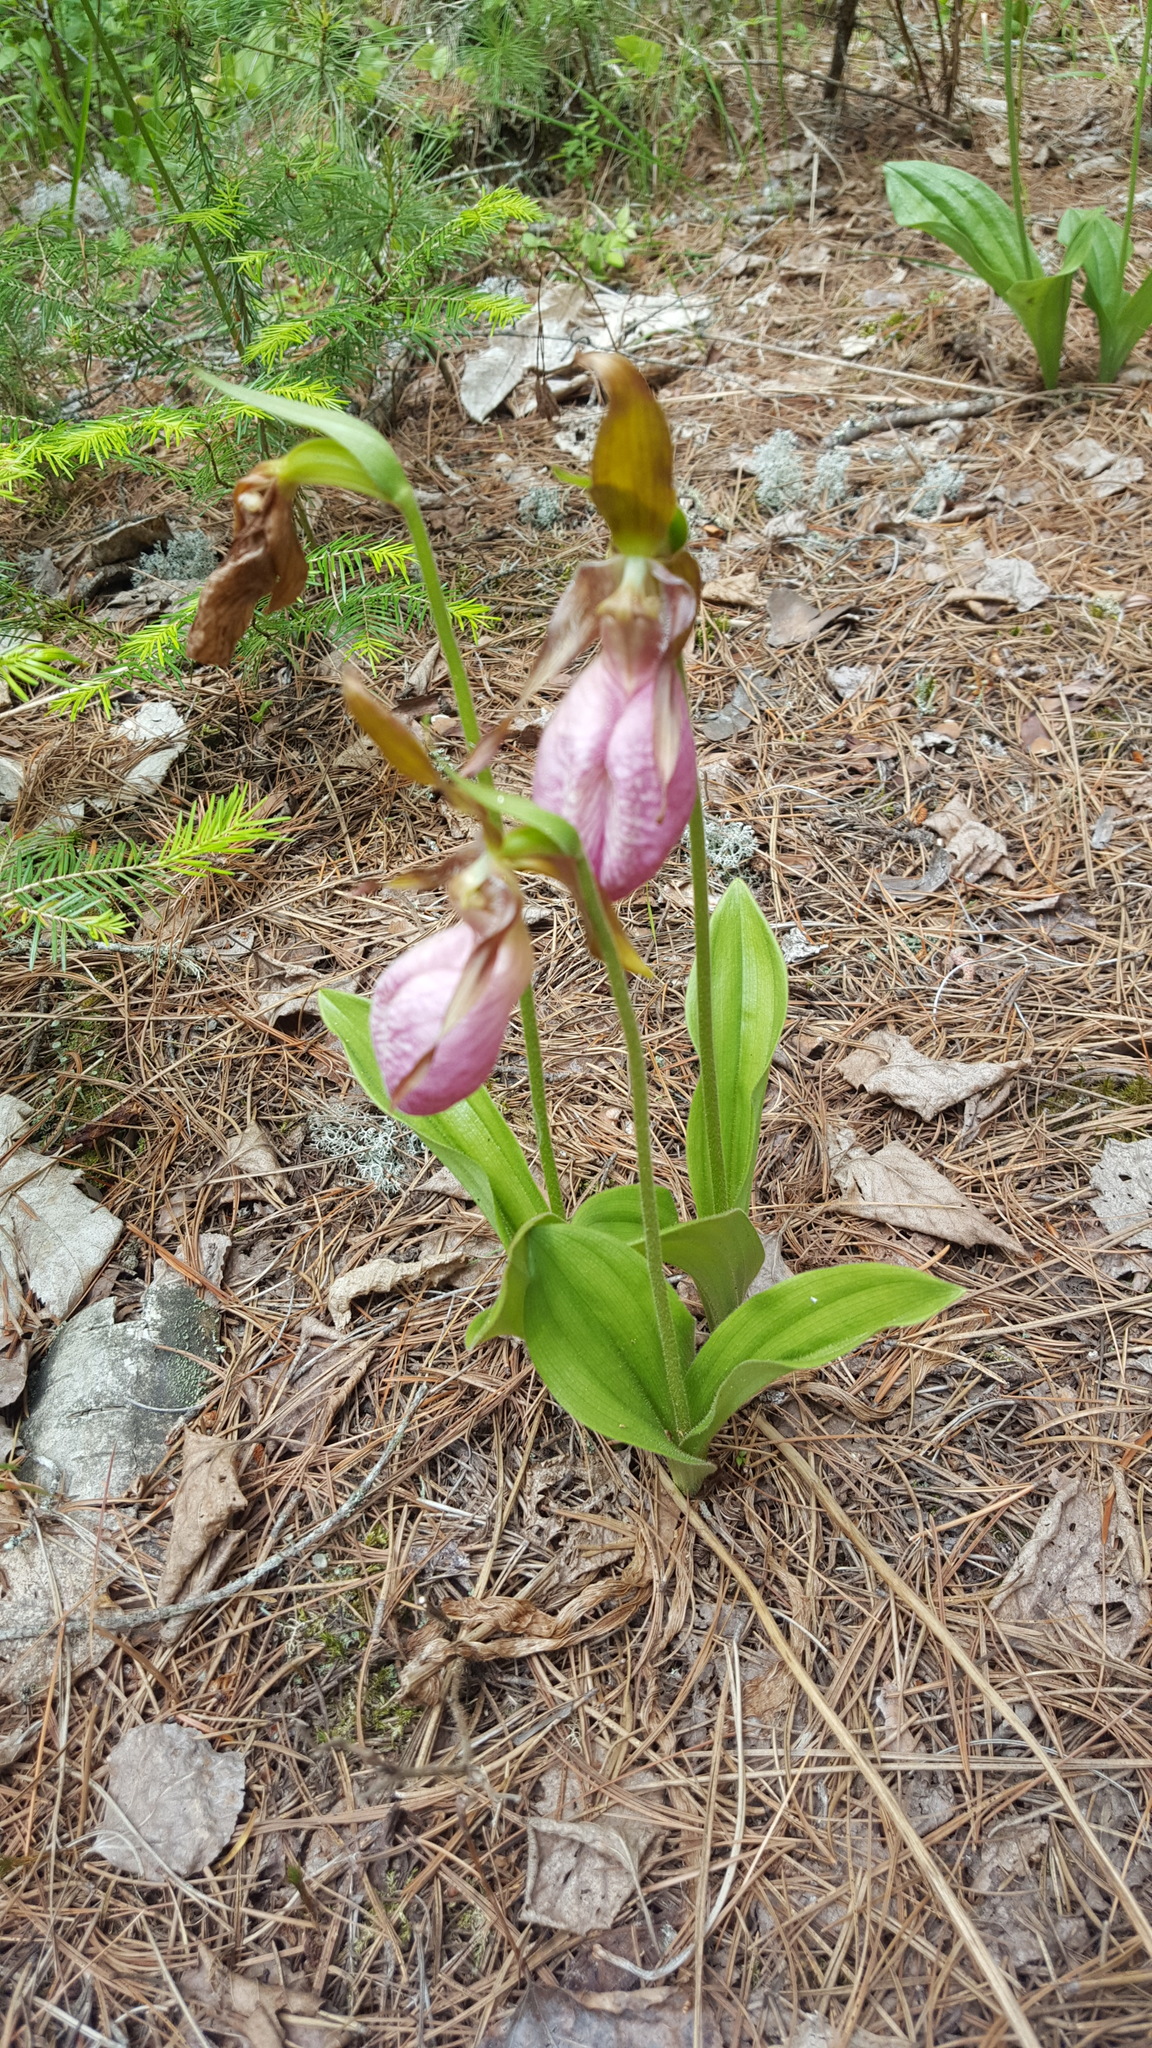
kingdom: Plantae
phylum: Tracheophyta
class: Liliopsida
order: Asparagales
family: Orchidaceae
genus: Cypripedium
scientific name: Cypripedium acaule
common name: Pink lady's-slipper
